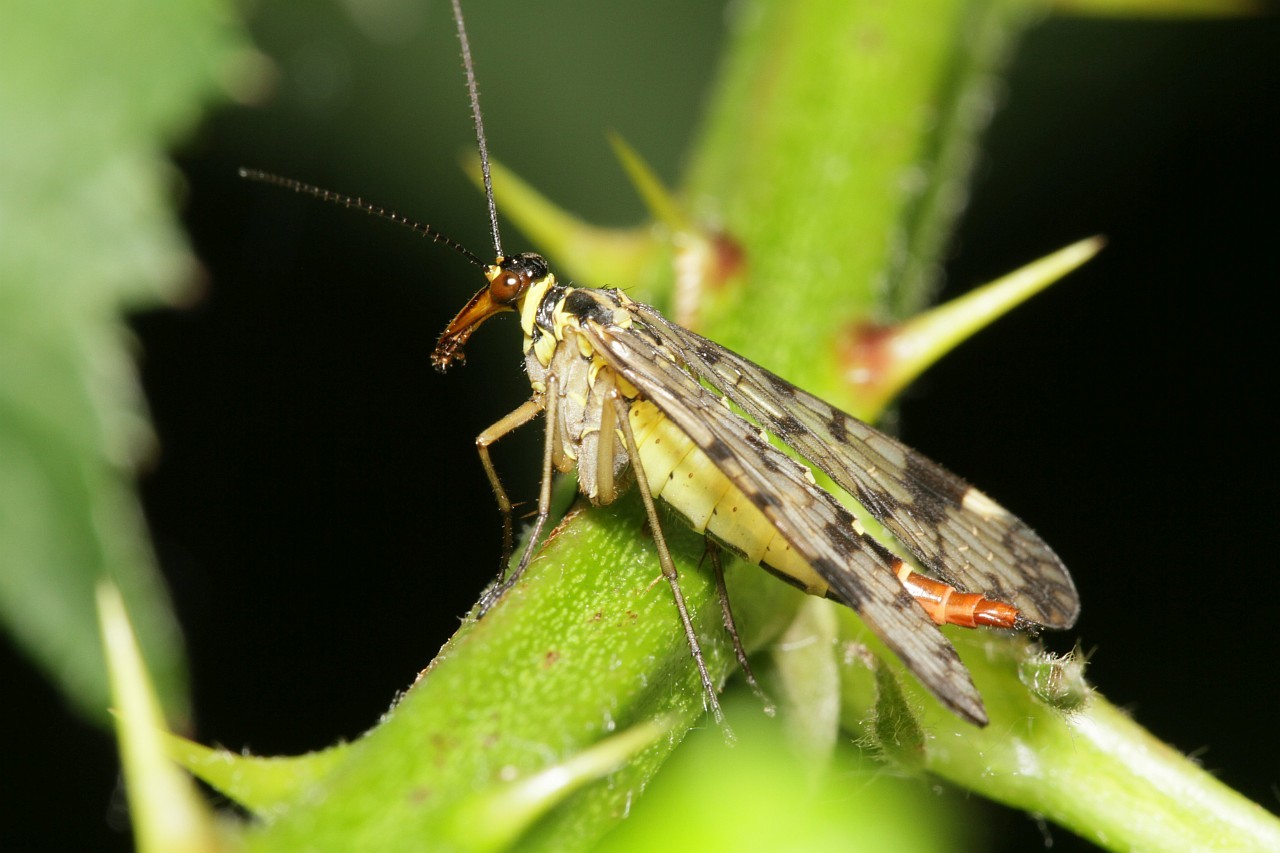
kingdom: Animalia
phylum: Arthropoda
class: Insecta
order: Mecoptera
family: Panorpidae
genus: Panorpa
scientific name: Panorpa communis
